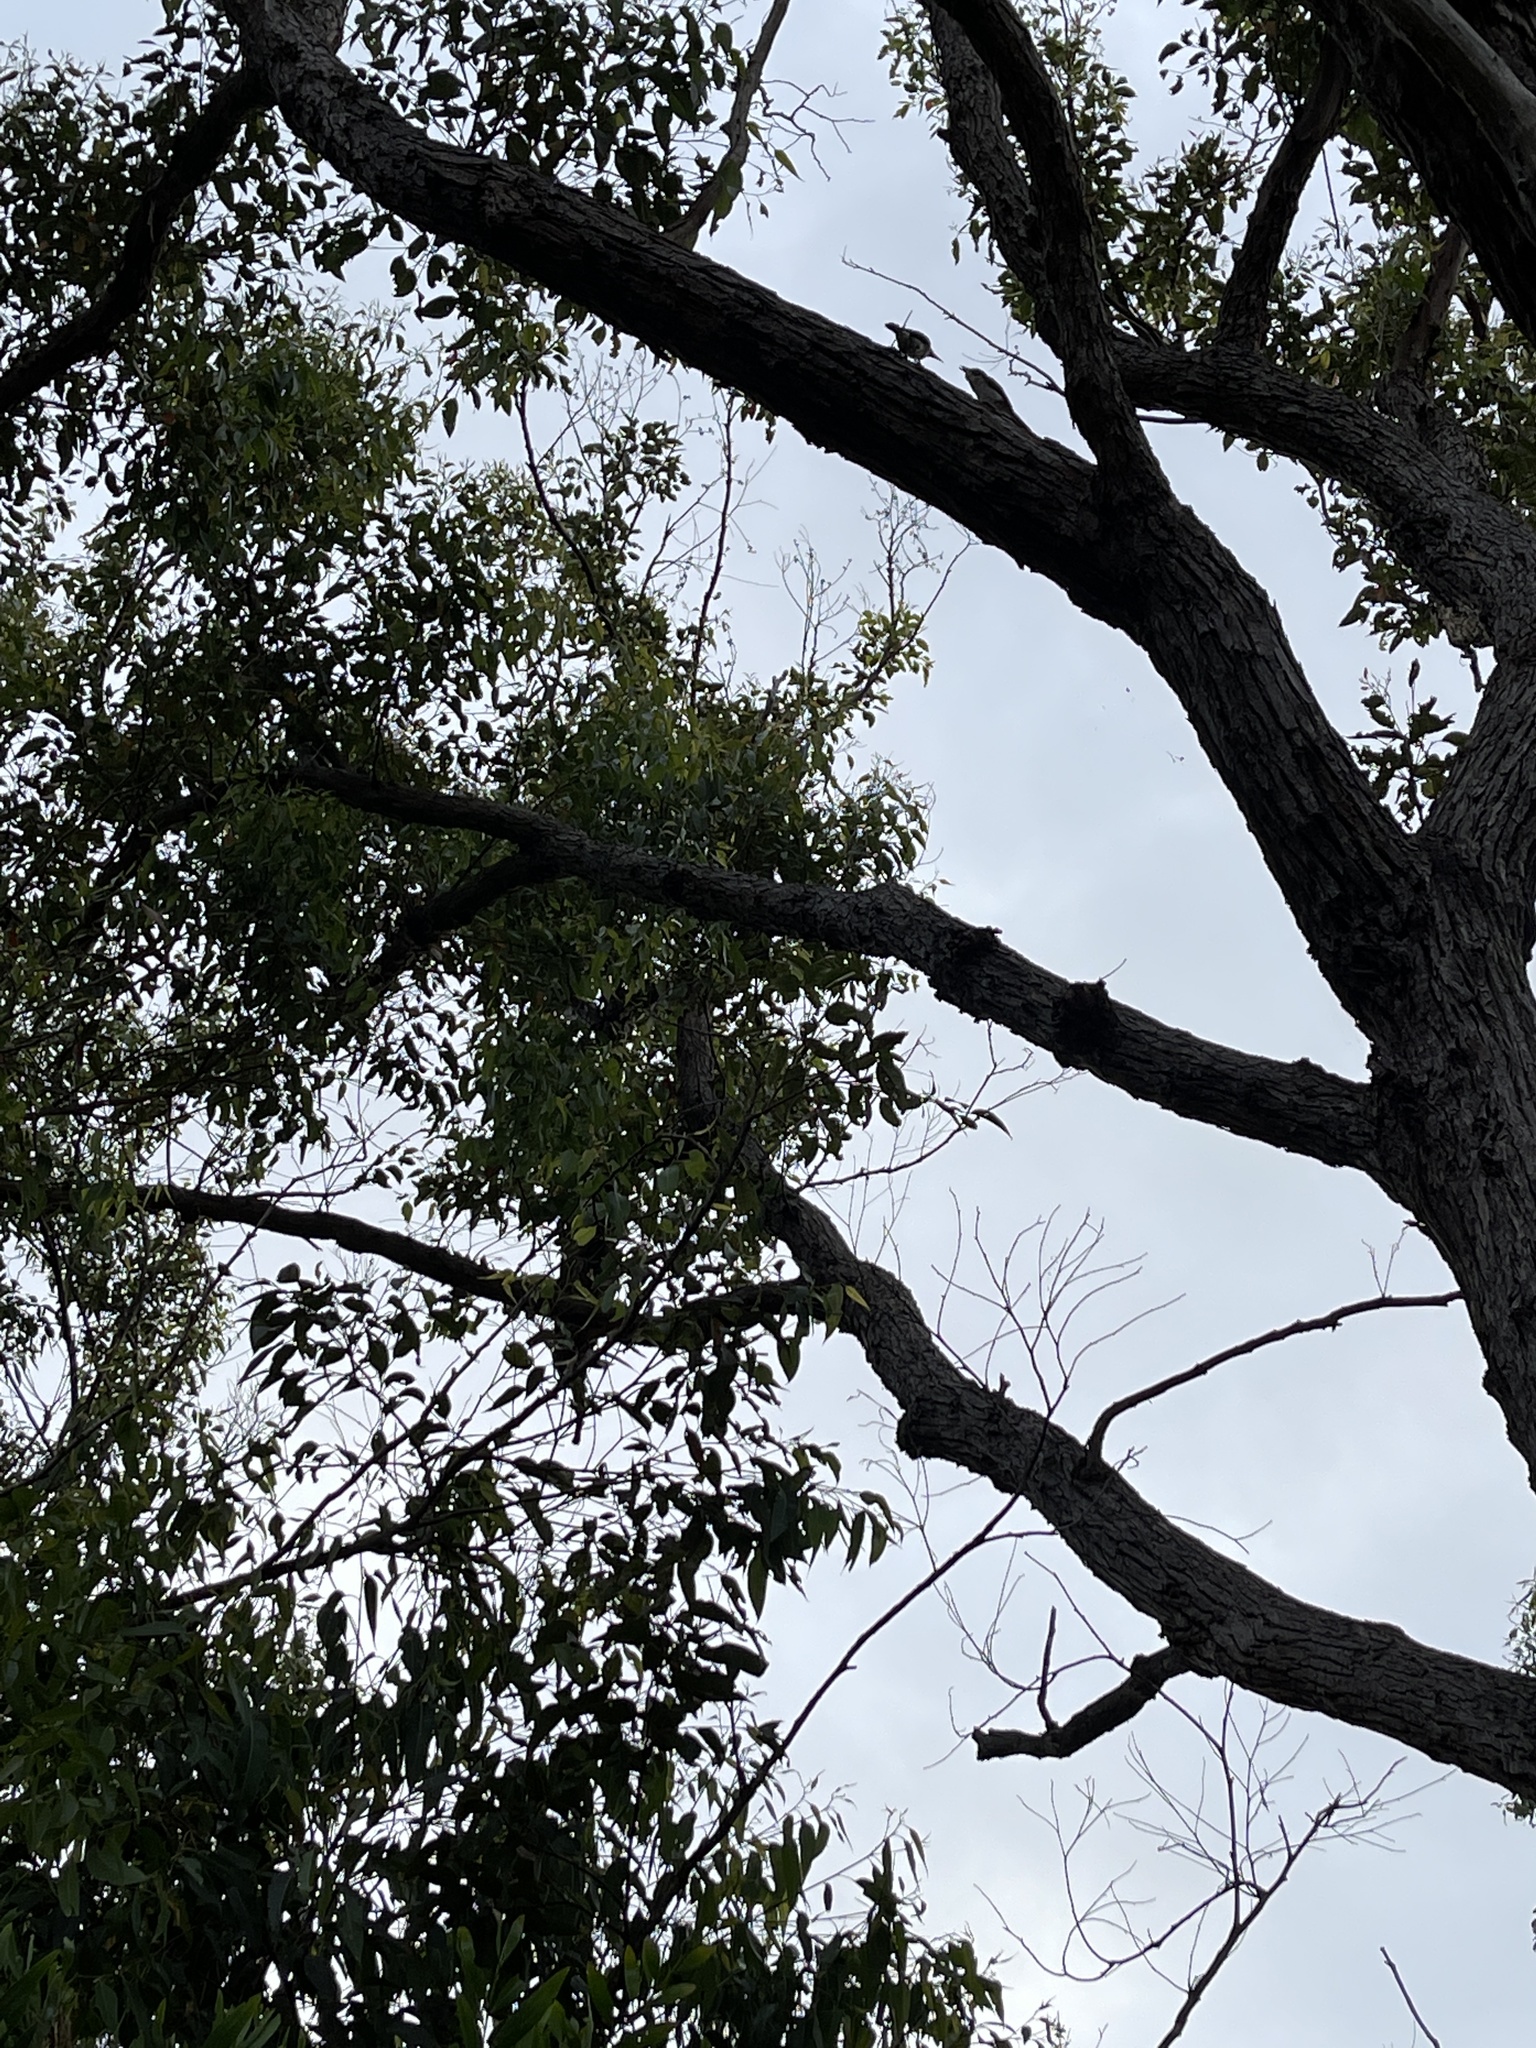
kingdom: Animalia
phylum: Chordata
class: Aves
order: Passeriformes
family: Cracticidae
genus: Cracticus
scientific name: Cracticus torquatus
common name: Grey butcherbird
